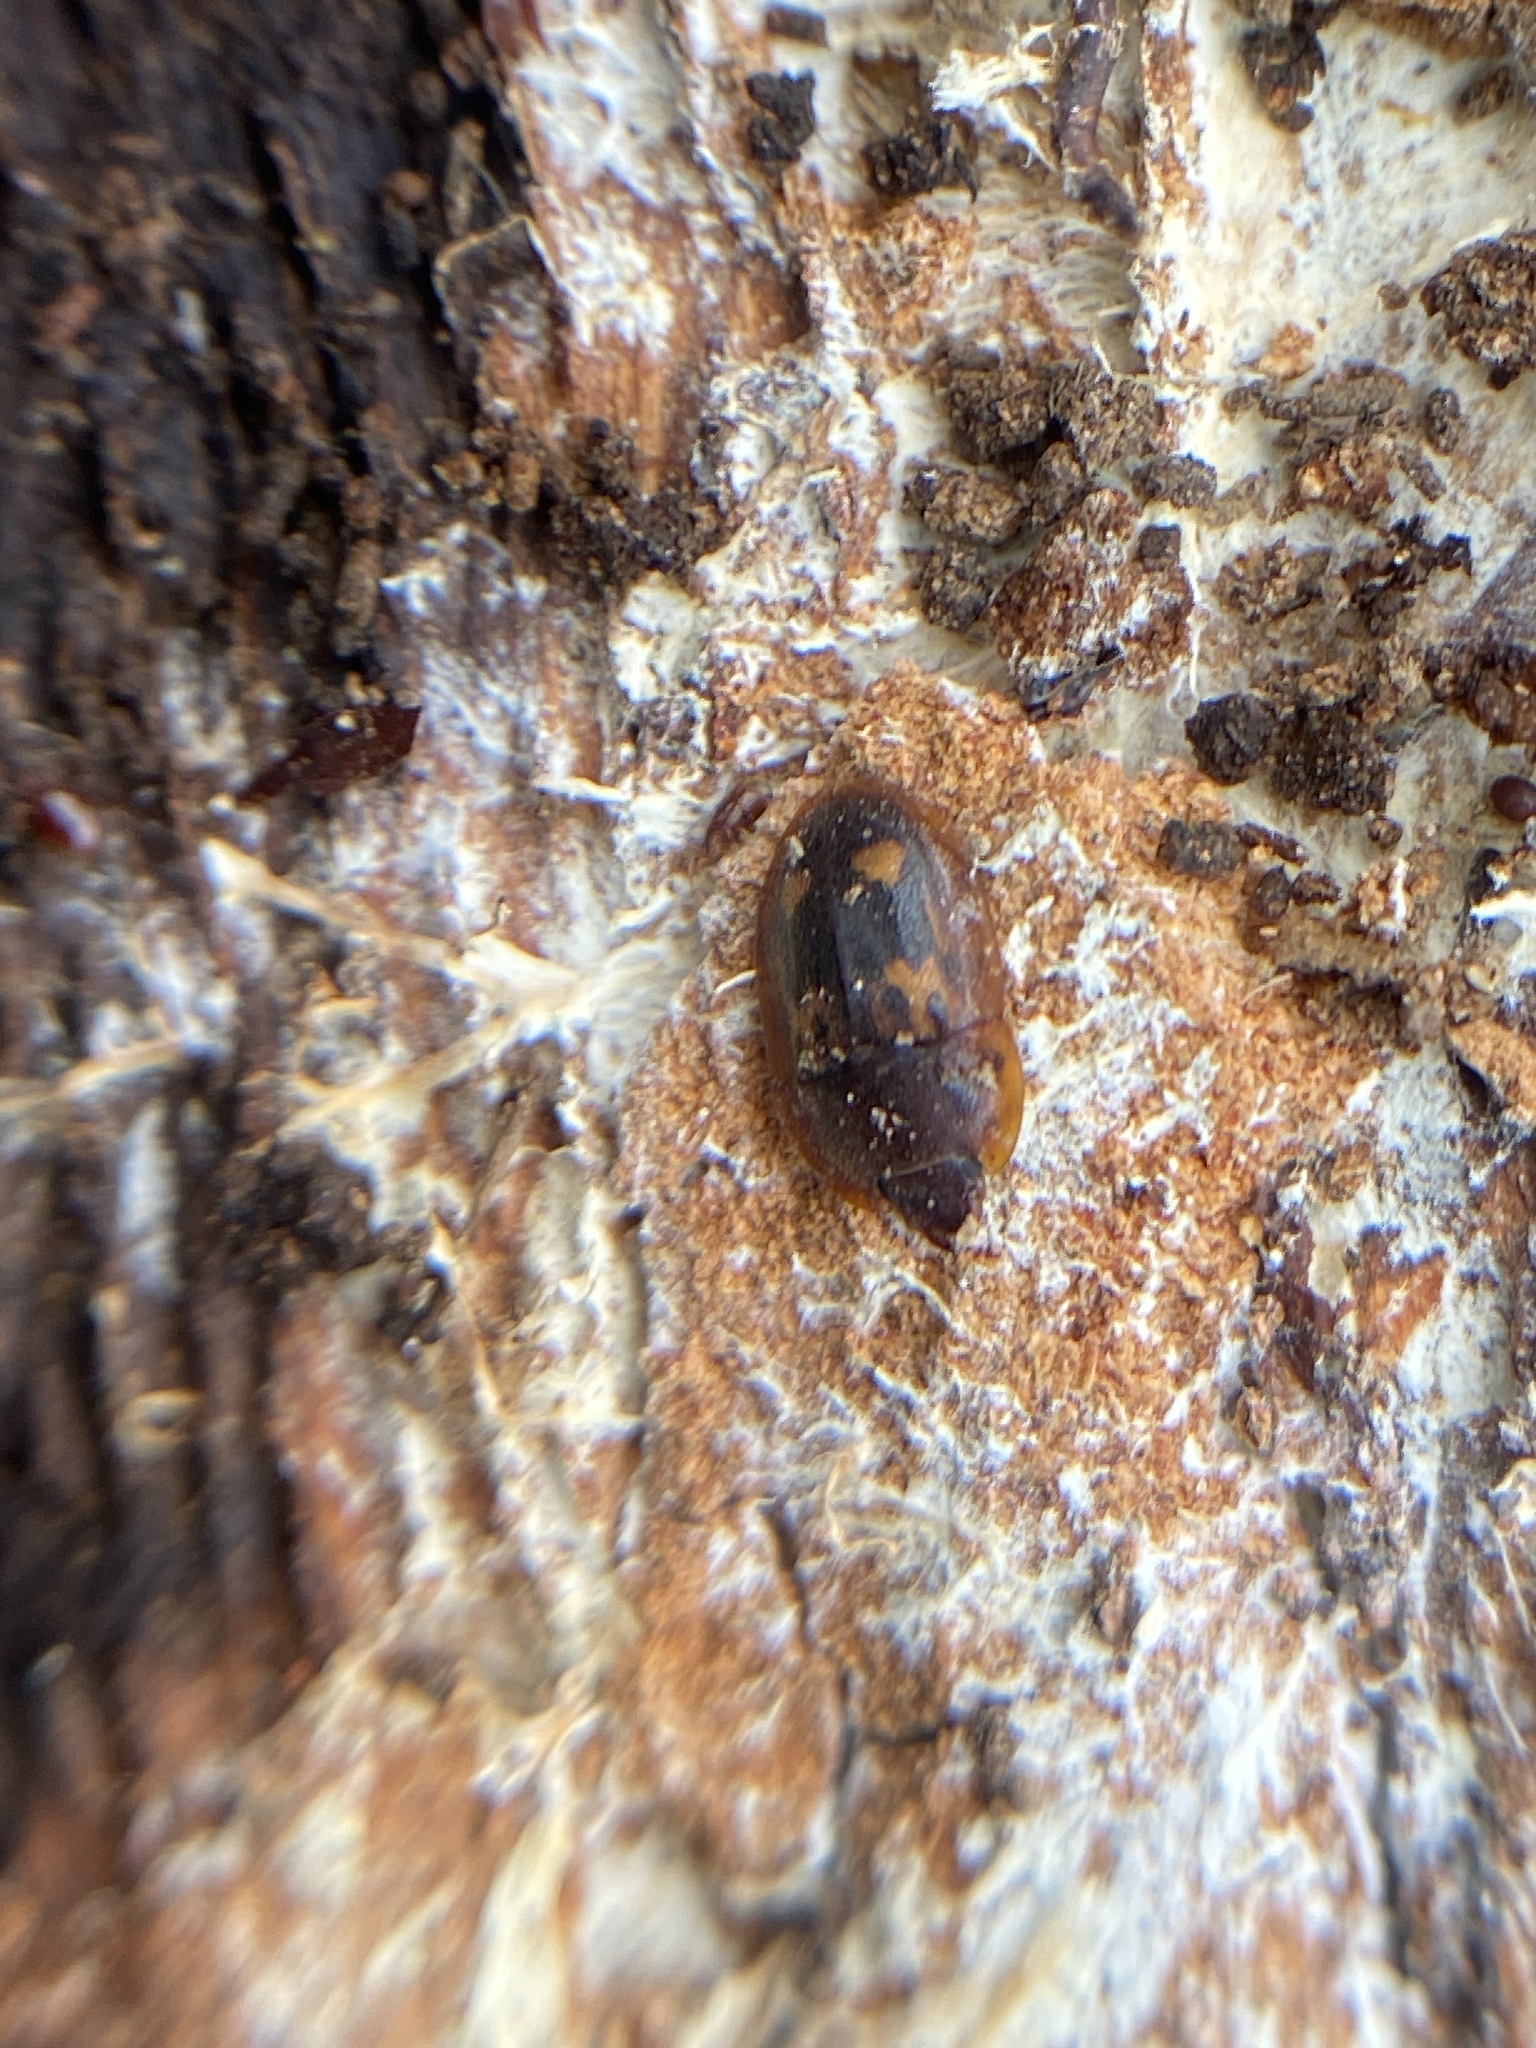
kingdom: Animalia
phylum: Arthropoda
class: Insecta
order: Coleoptera
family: Nitidulidae
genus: Prometopia
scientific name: Prometopia sexmaculata
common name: Six-spotted sap-feeding beetle
